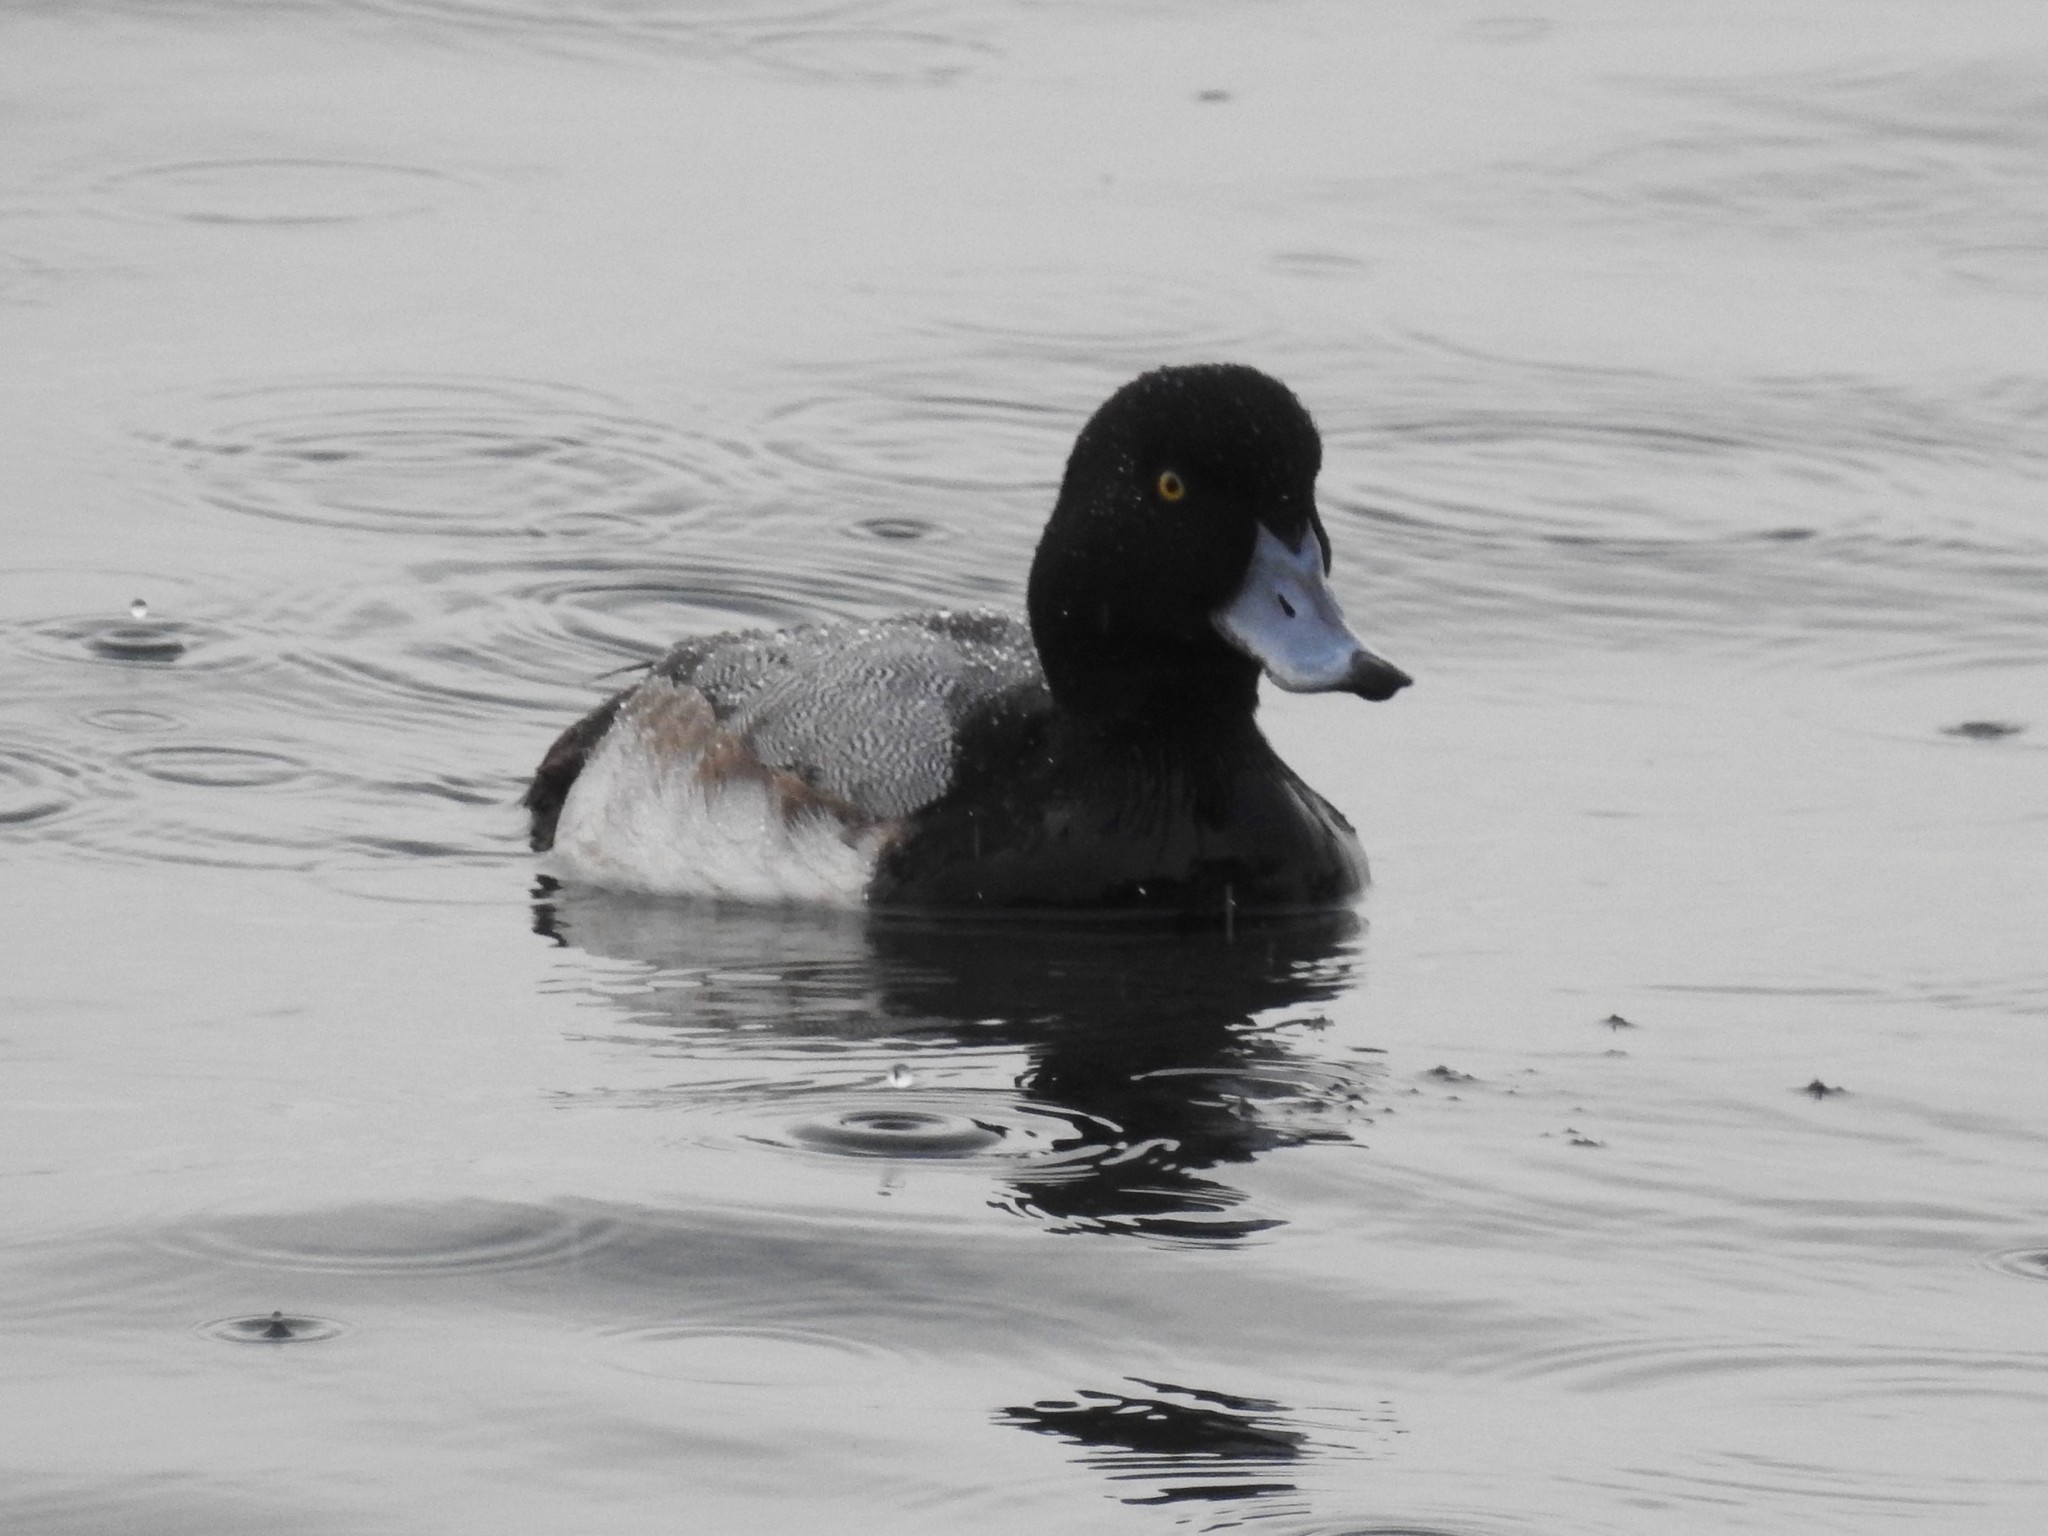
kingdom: Animalia
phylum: Chordata
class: Aves
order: Anseriformes
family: Anatidae
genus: Aythya
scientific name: Aythya marila
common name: Greater scaup
